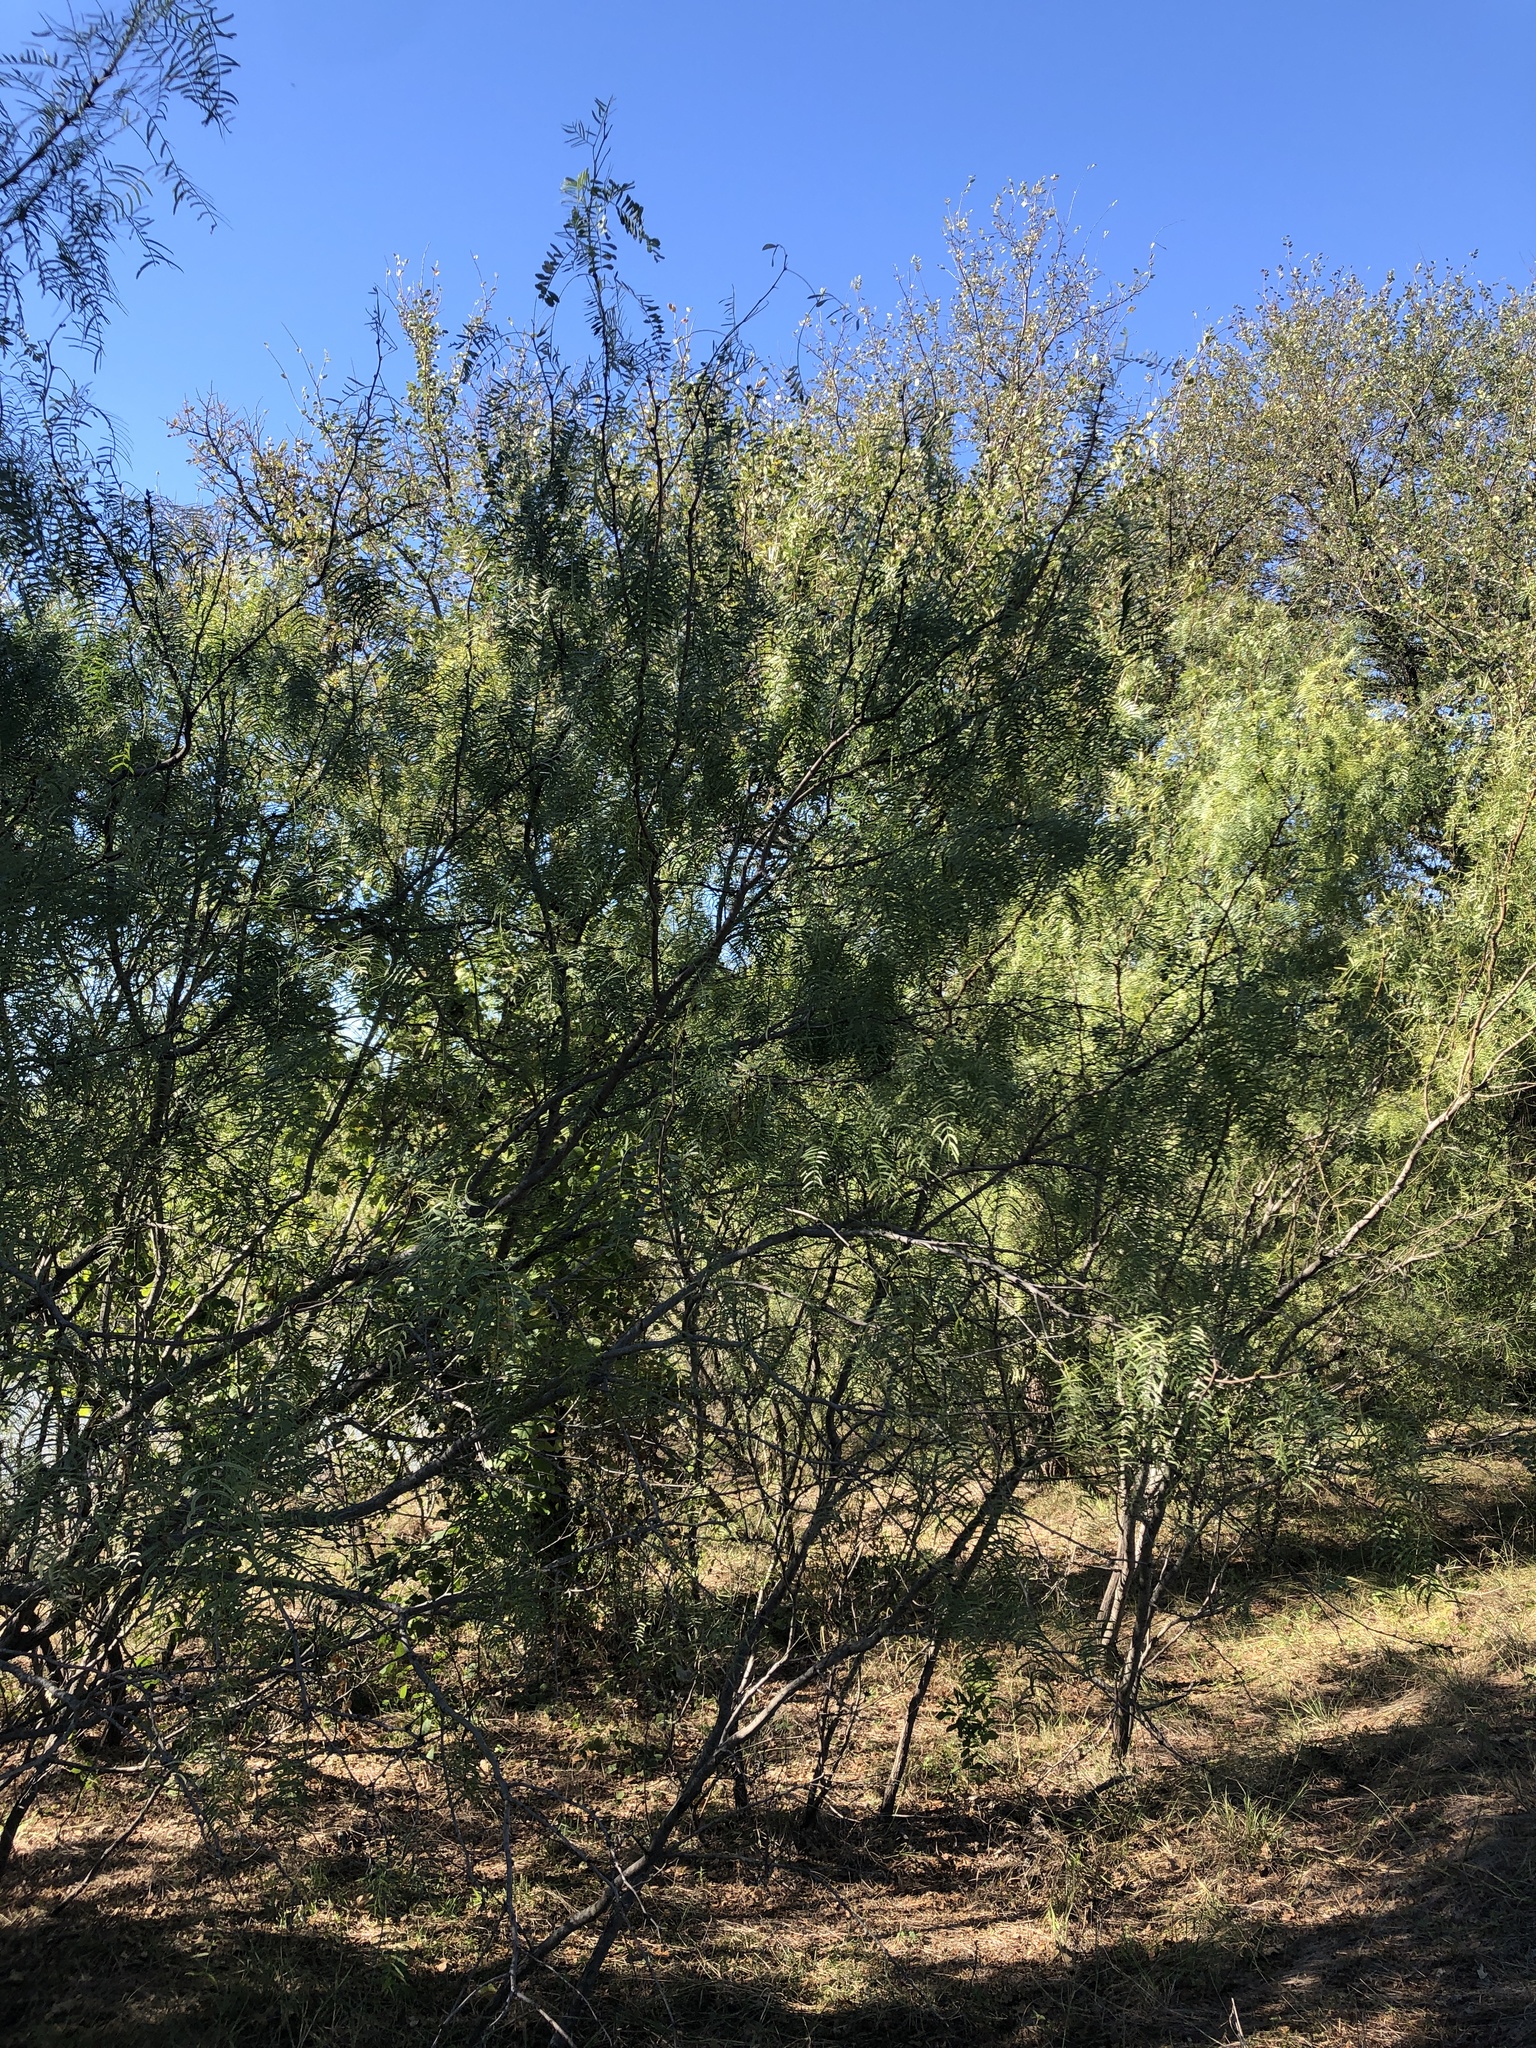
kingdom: Plantae
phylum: Tracheophyta
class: Magnoliopsida
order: Fabales
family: Fabaceae
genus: Prosopis
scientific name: Prosopis glandulosa
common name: Honey mesquite
